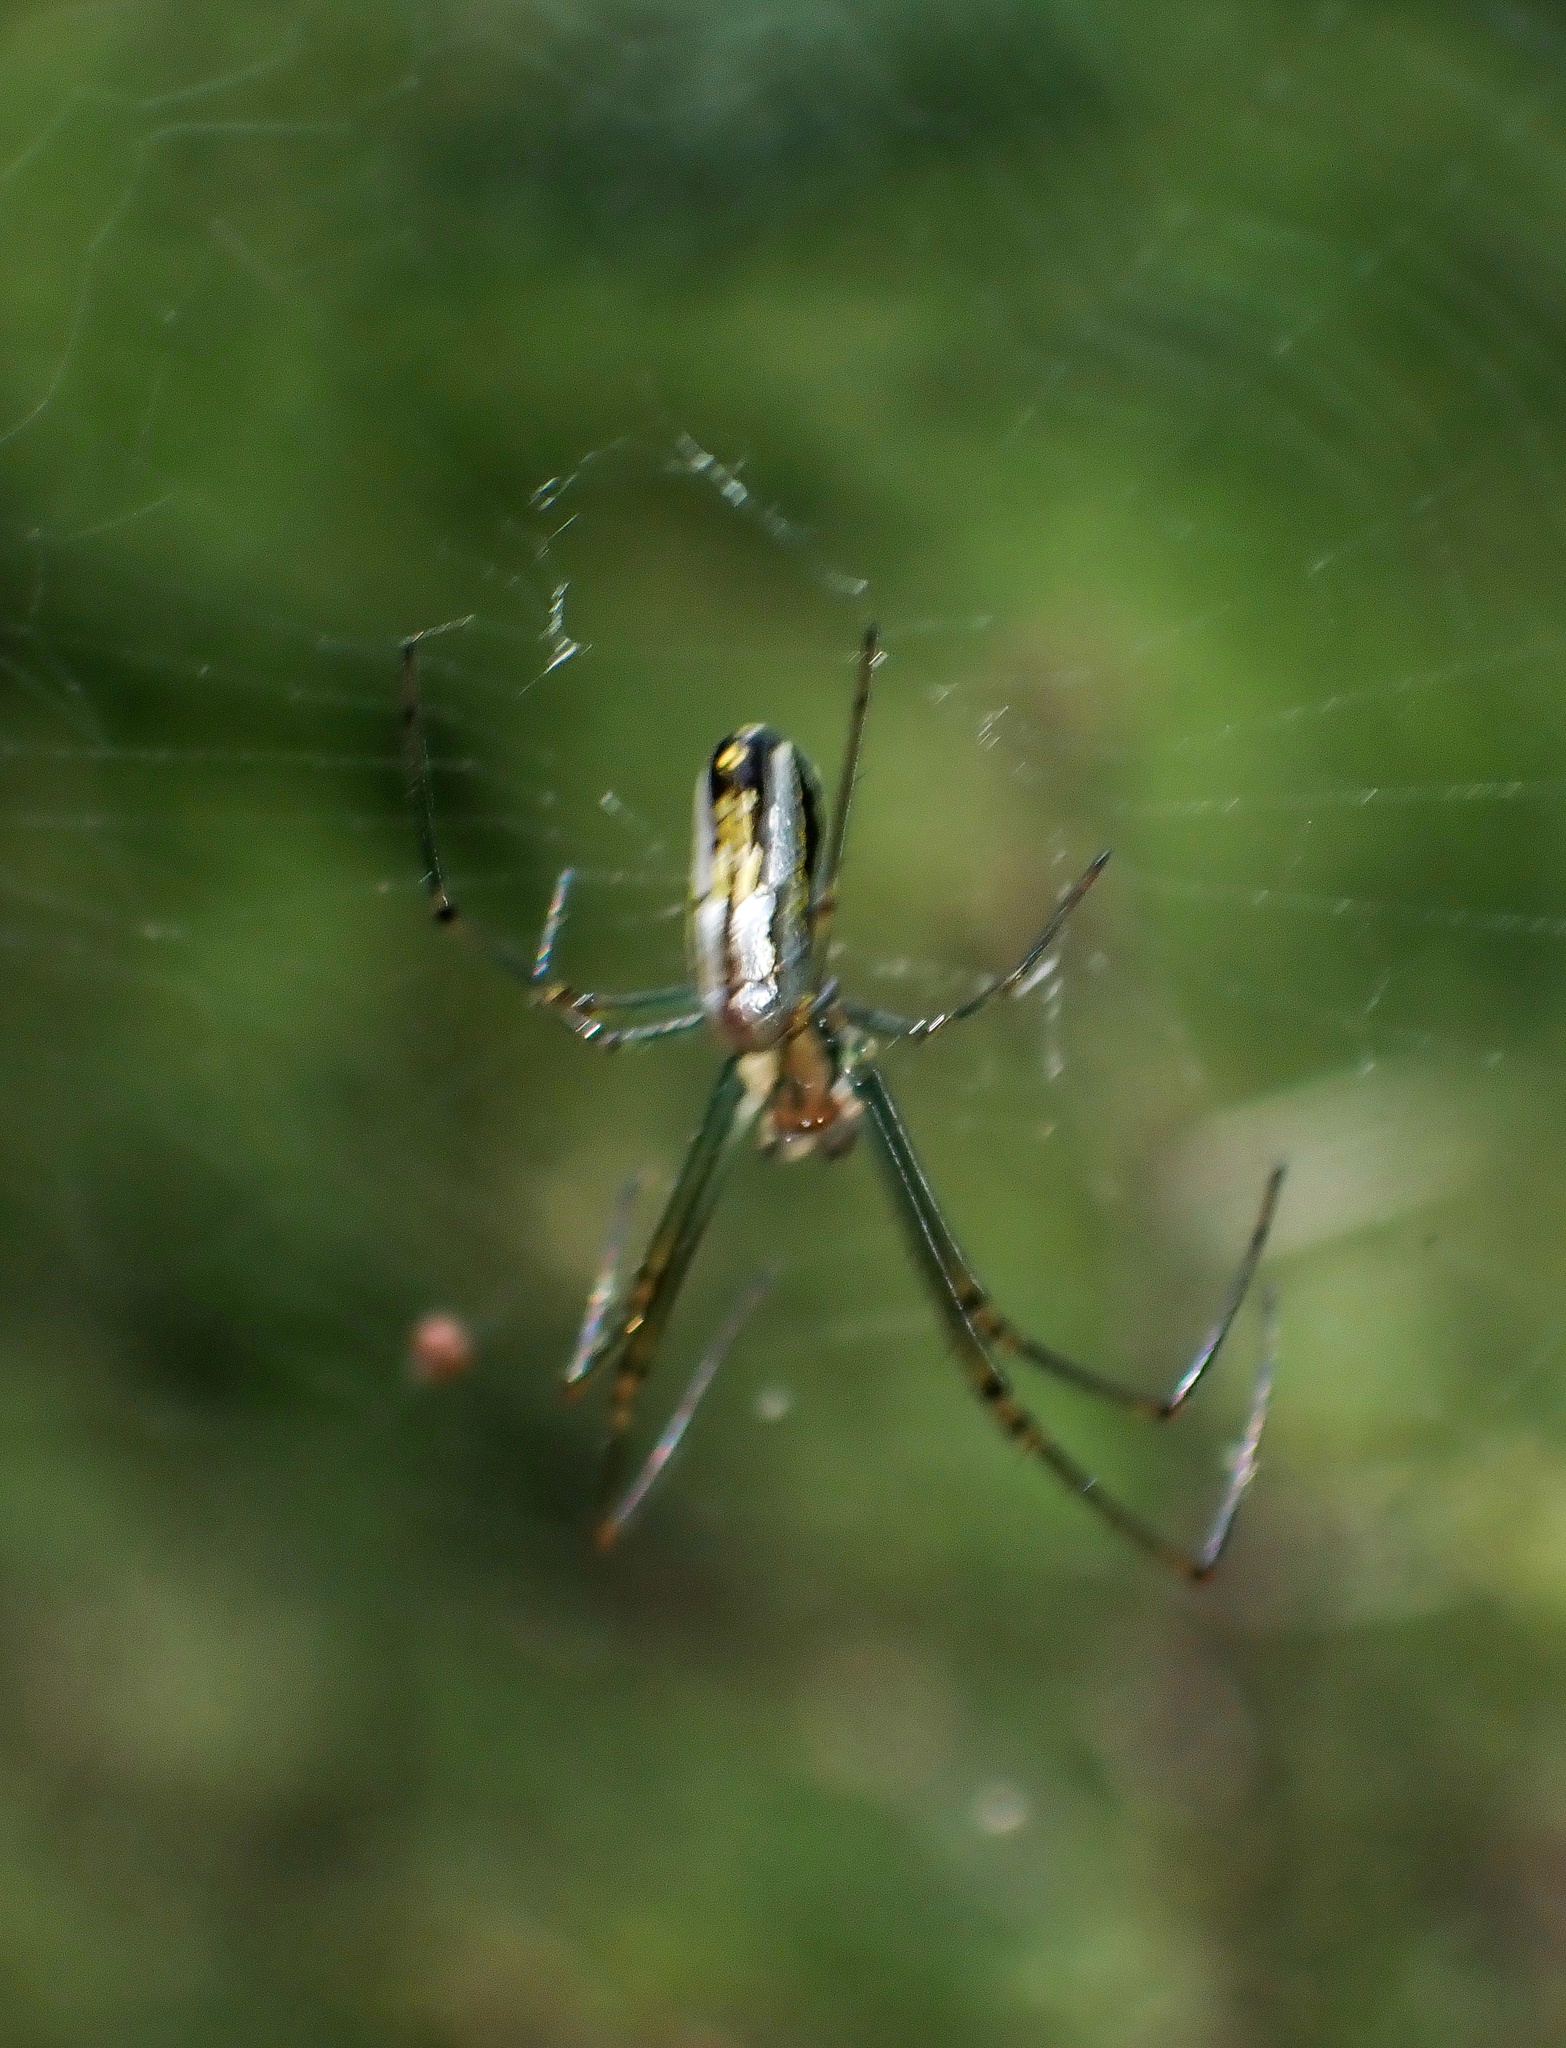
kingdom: Animalia
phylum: Arthropoda
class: Arachnida
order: Araneae
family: Tetragnathidae
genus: Leucauge
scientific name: Leucauge argyra
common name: Longjawed orb weavers
